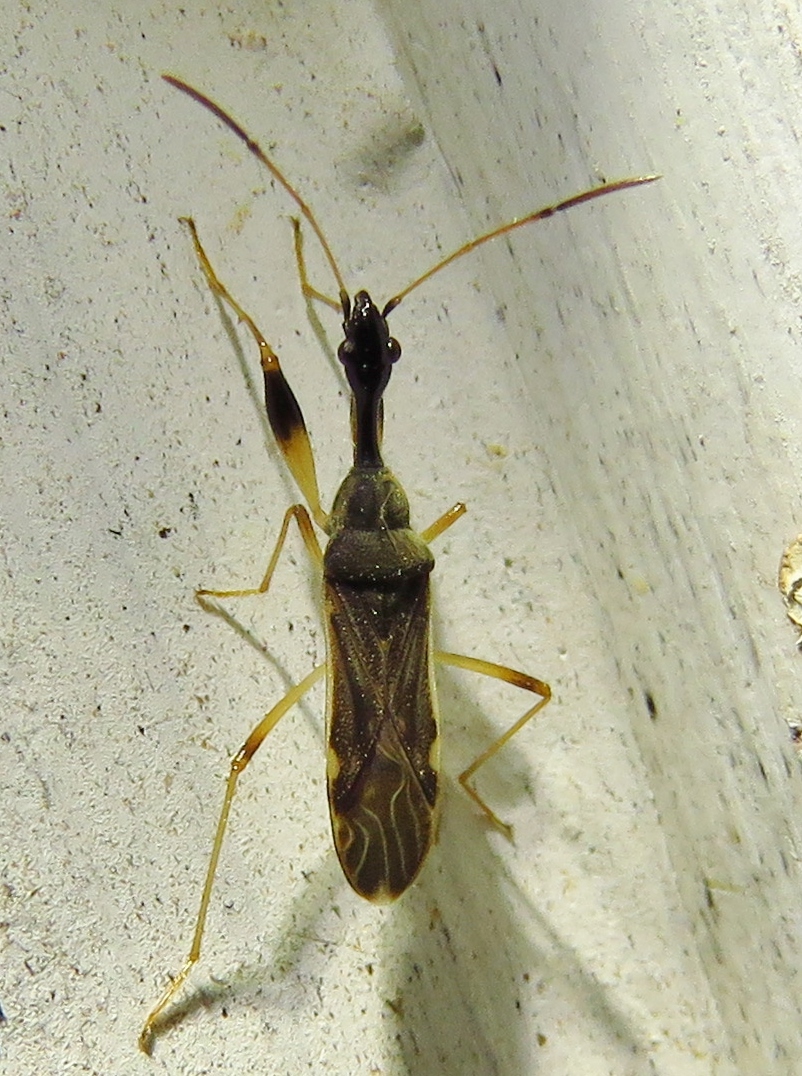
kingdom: Animalia
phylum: Arthropoda
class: Insecta
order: Hemiptera
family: Rhyparochromidae
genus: Myodocha
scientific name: Myodocha serripes
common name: Long-necked seed bug
